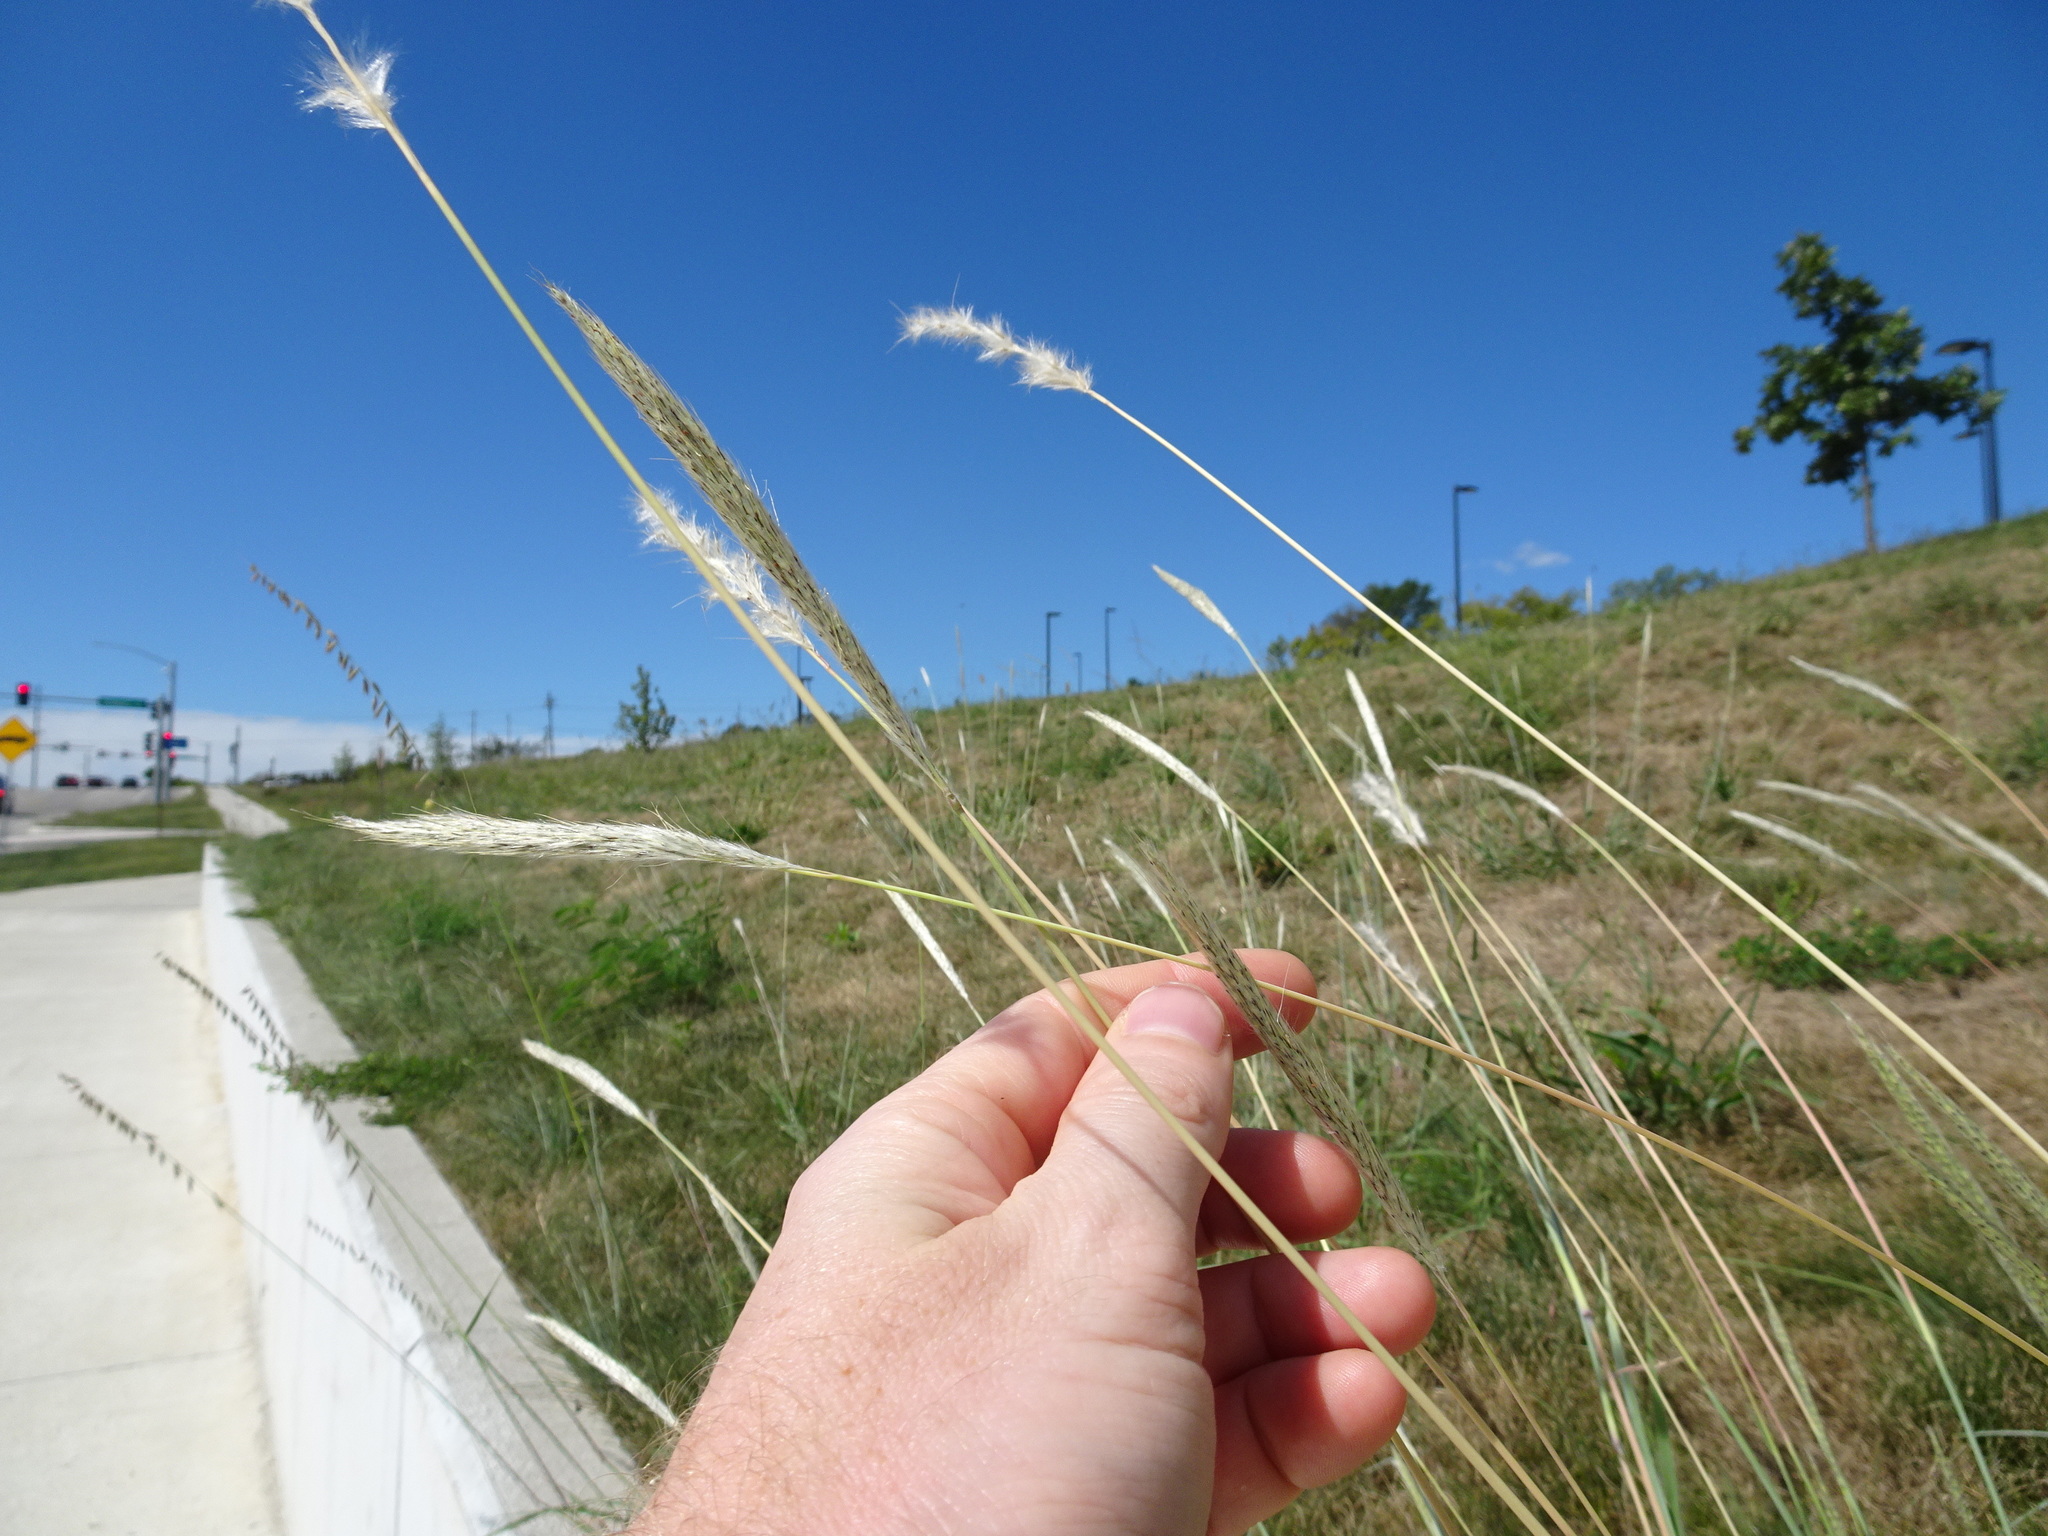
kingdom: Plantae
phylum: Tracheophyta
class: Liliopsida
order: Poales
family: Poaceae
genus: Bothriochloa
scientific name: Bothriochloa torreyana
